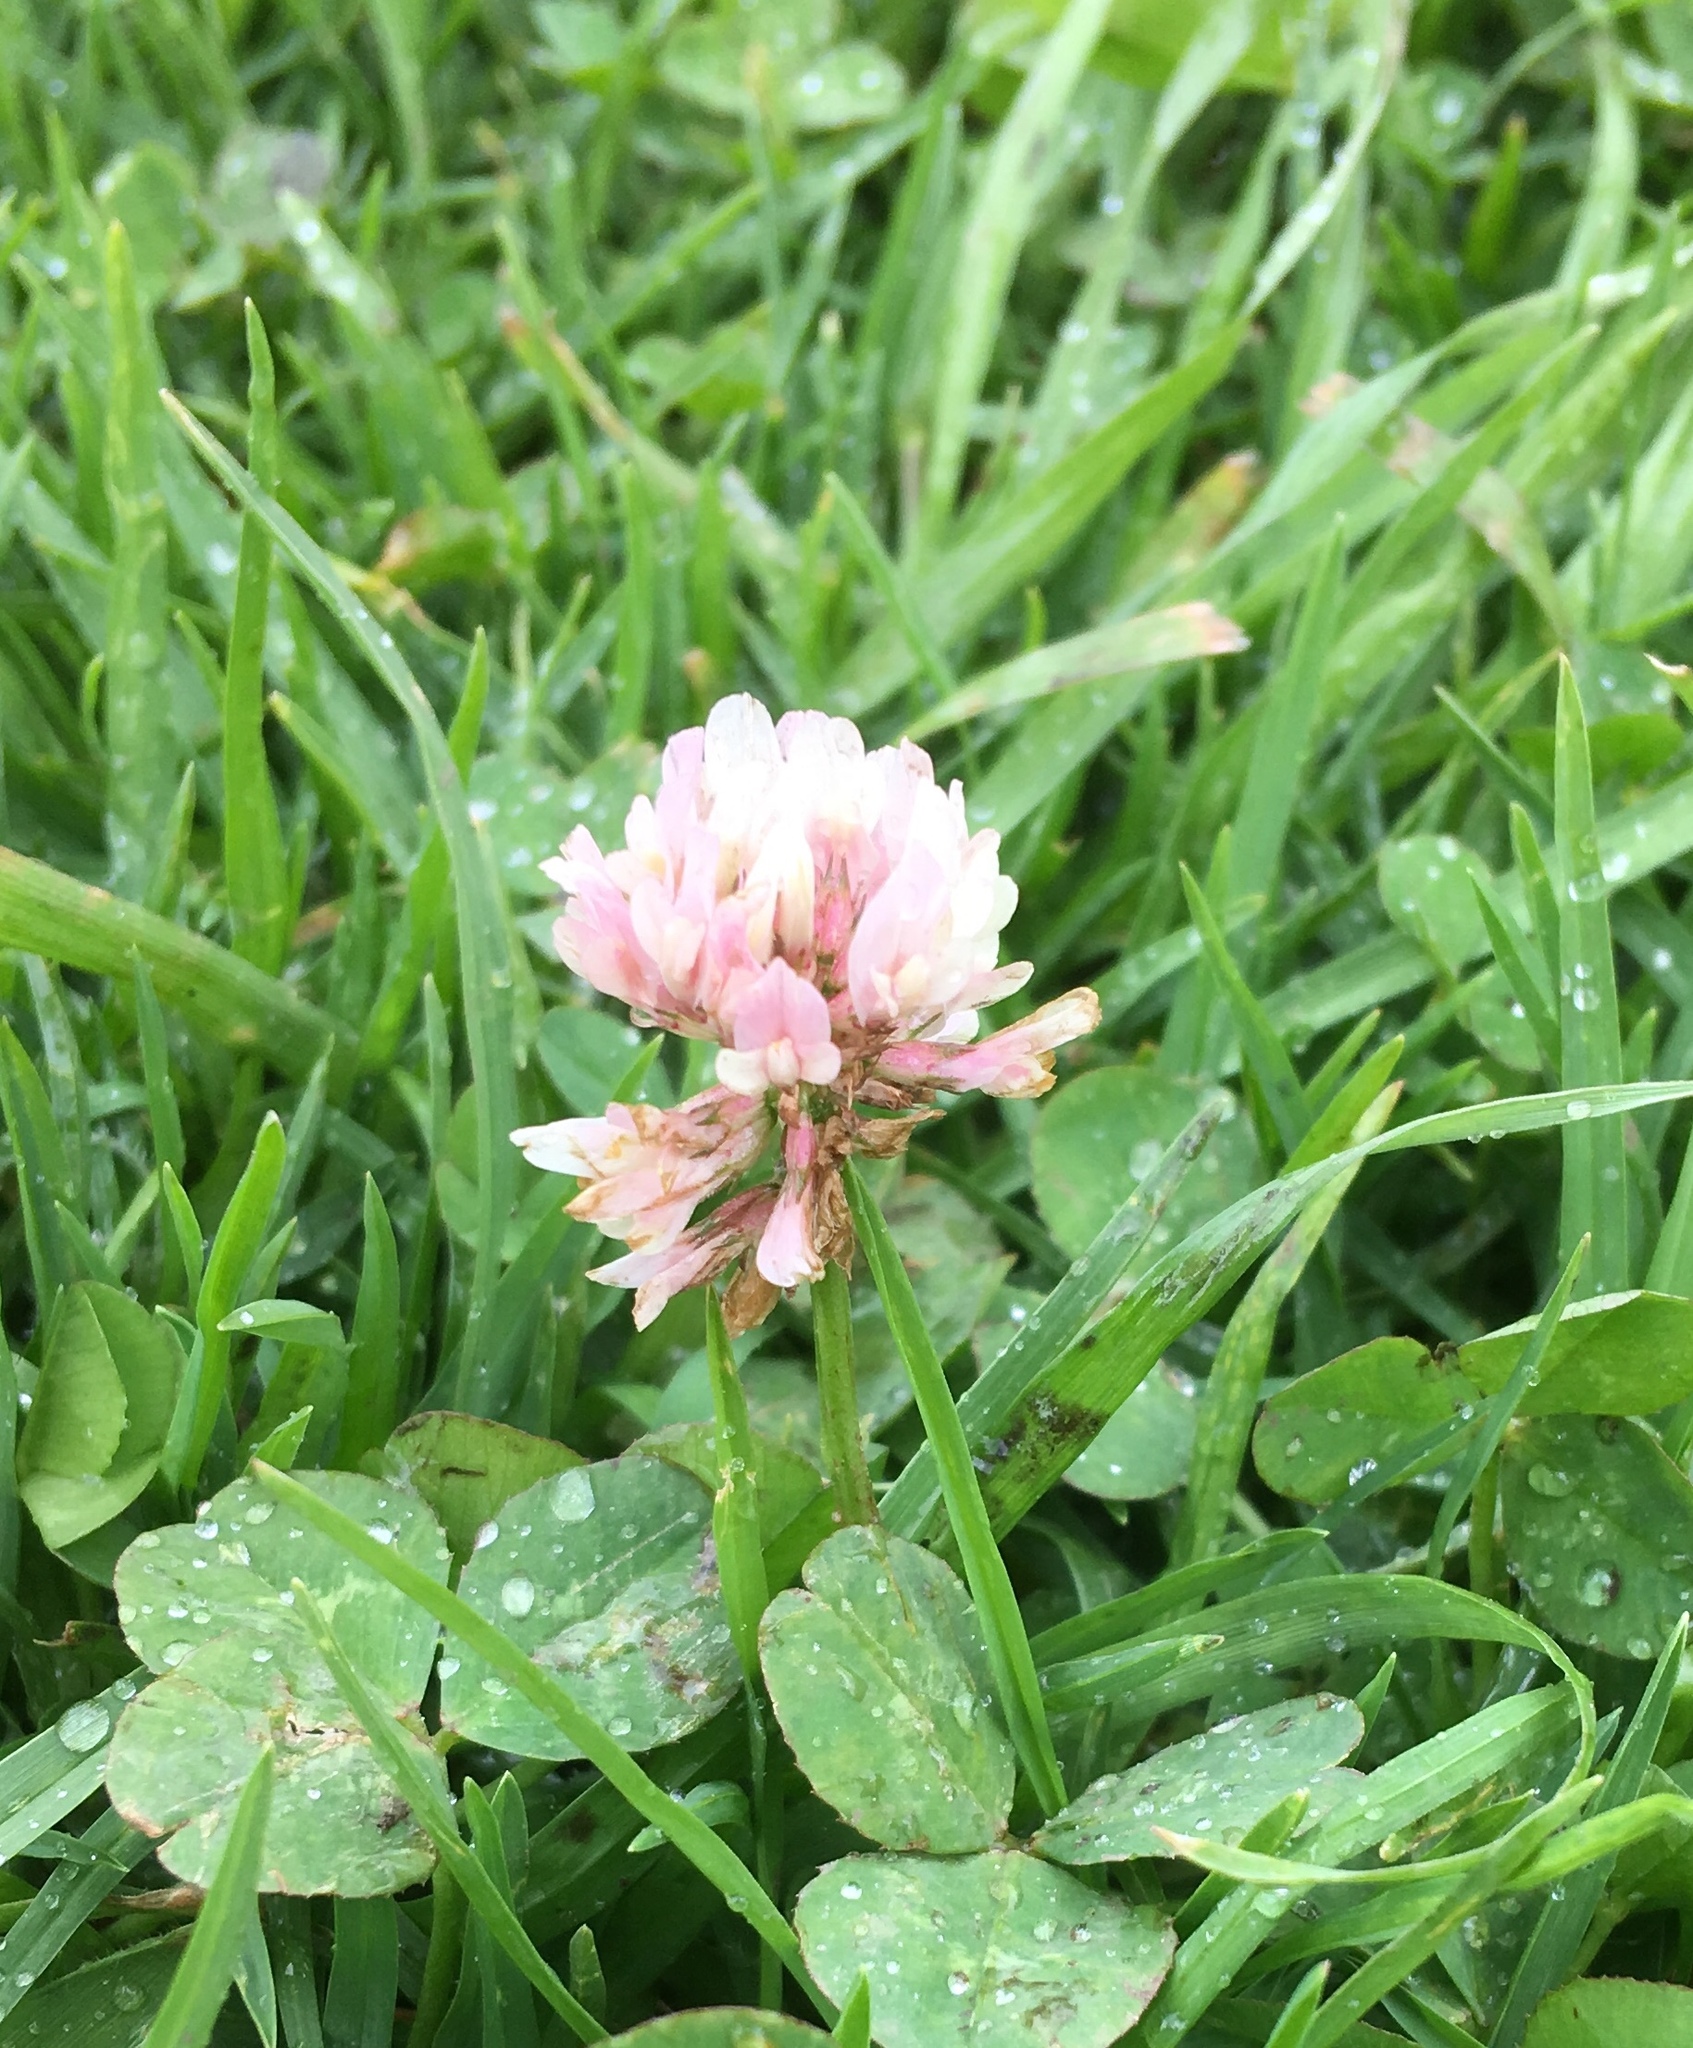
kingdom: Plantae
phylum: Tracheophyta
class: Magnoliopsida
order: Fabales
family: Fabaceae
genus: Trifolium
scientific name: Trifolium repens
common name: White clover
